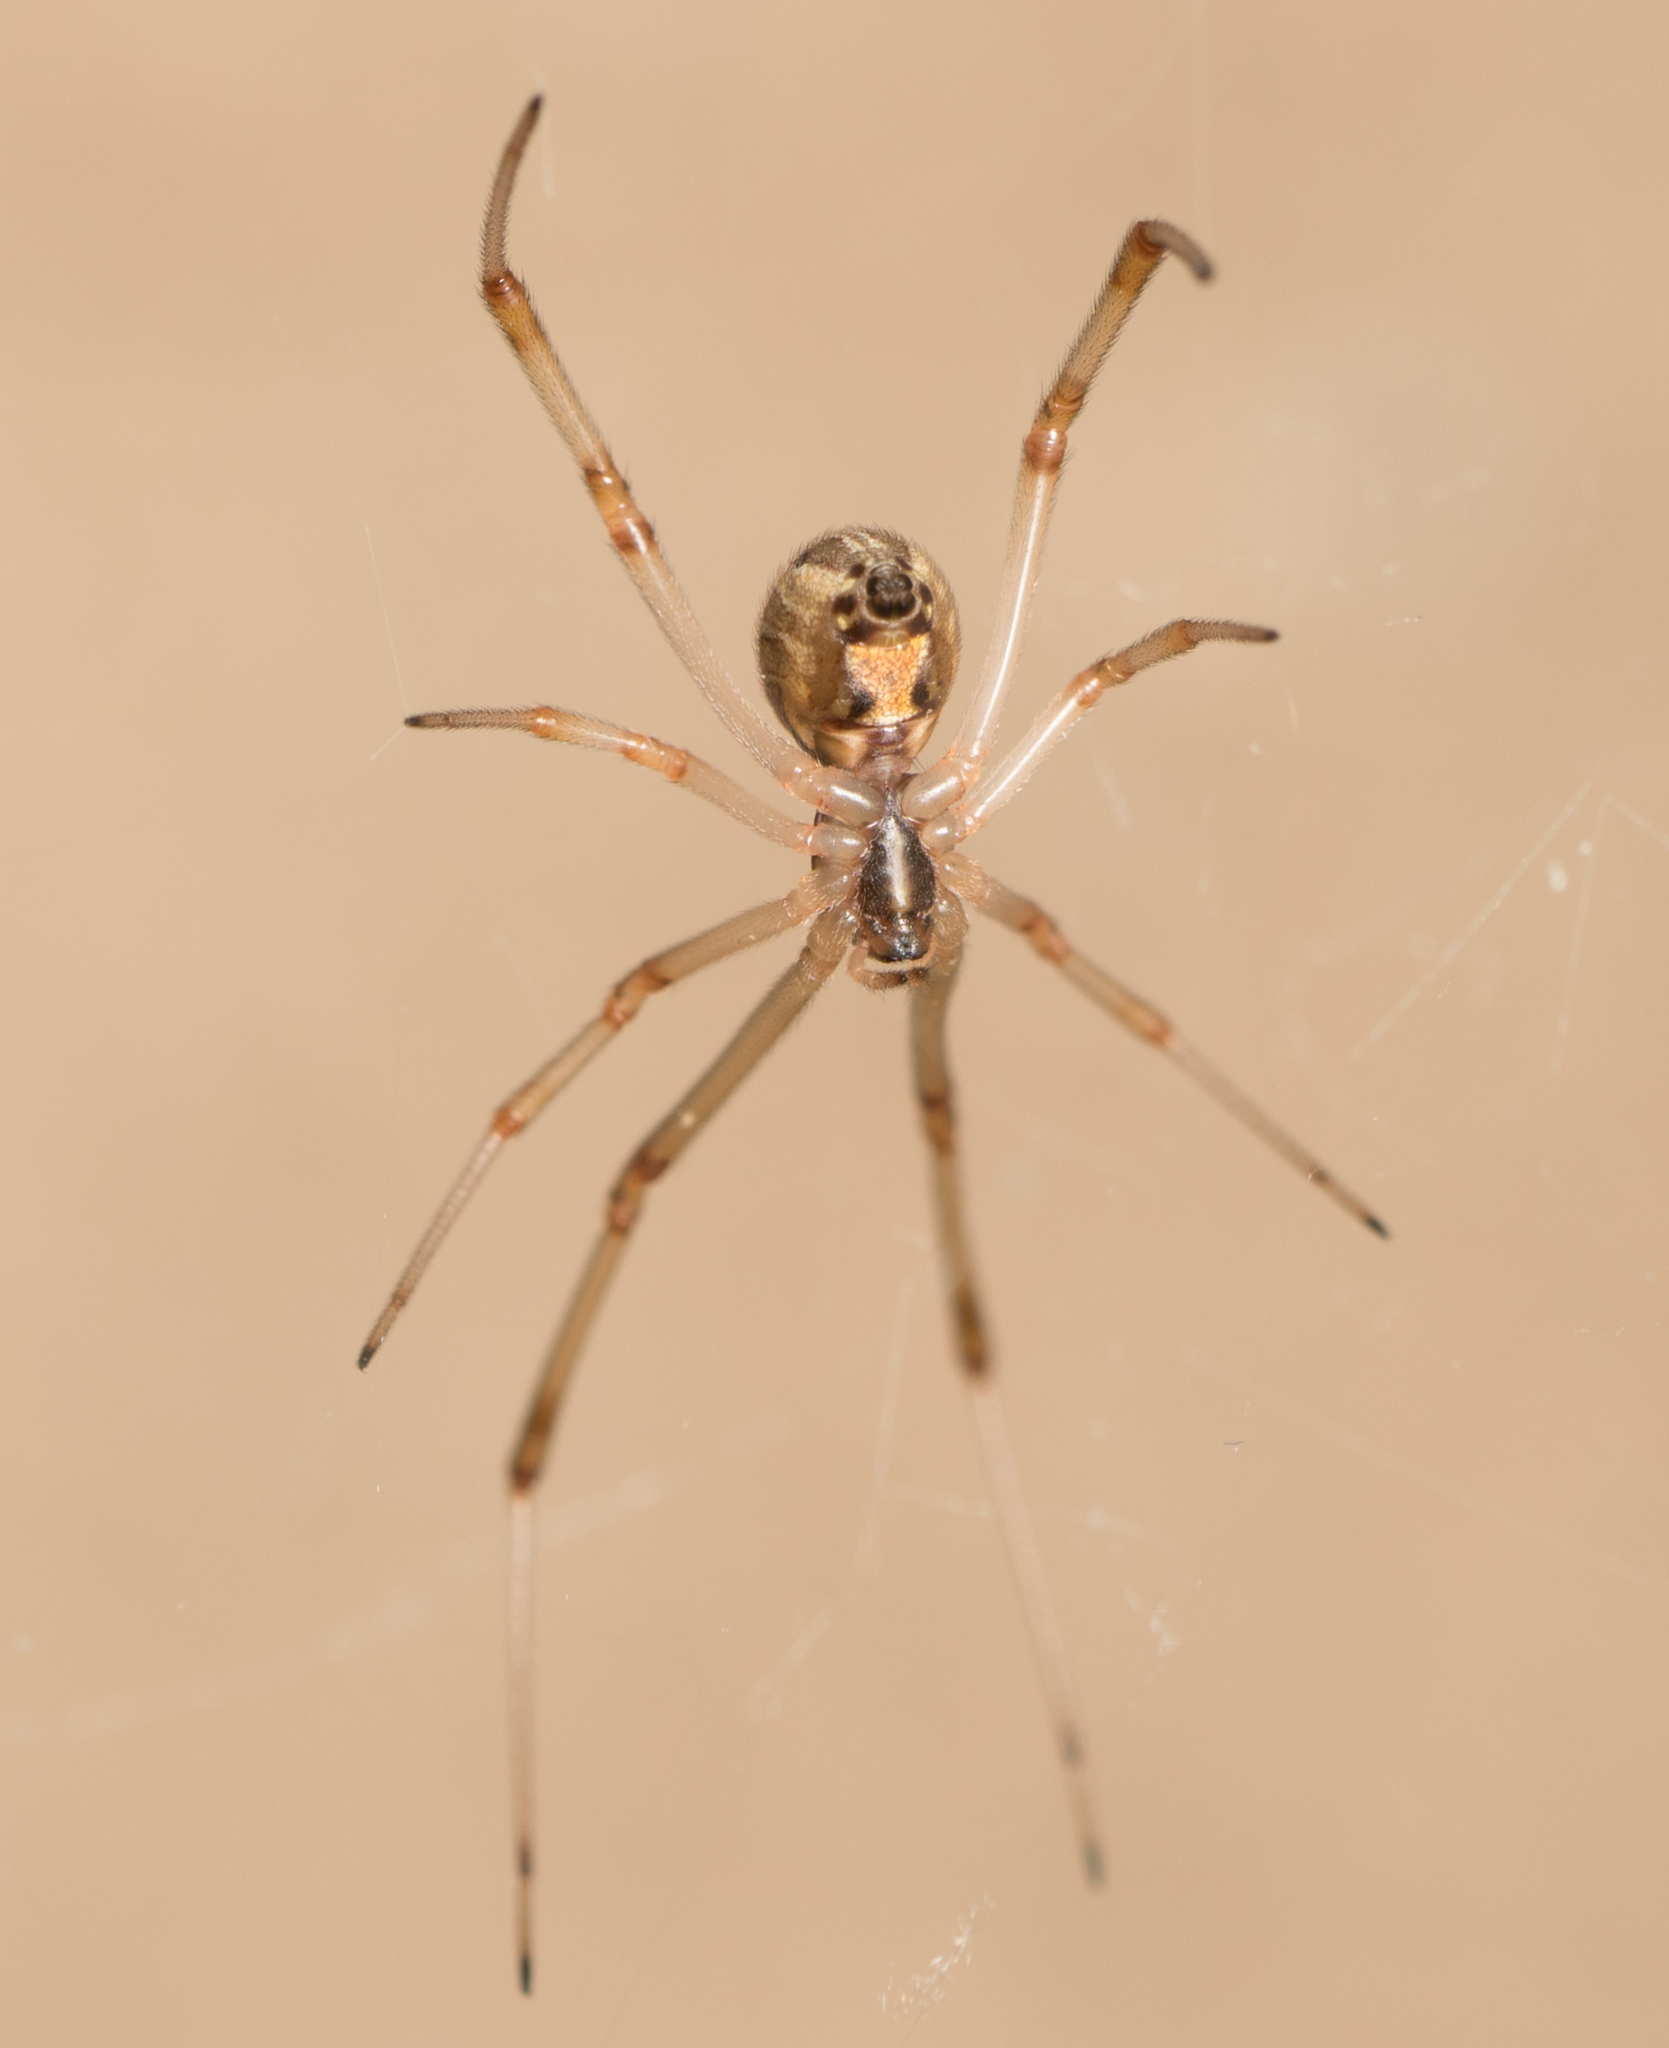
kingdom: Animalia
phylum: Arthropoda
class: Arachnida
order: Araneae
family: Theridiidae
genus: Latrodectus
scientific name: Latrodectus geometricus
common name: Brown widow spider
